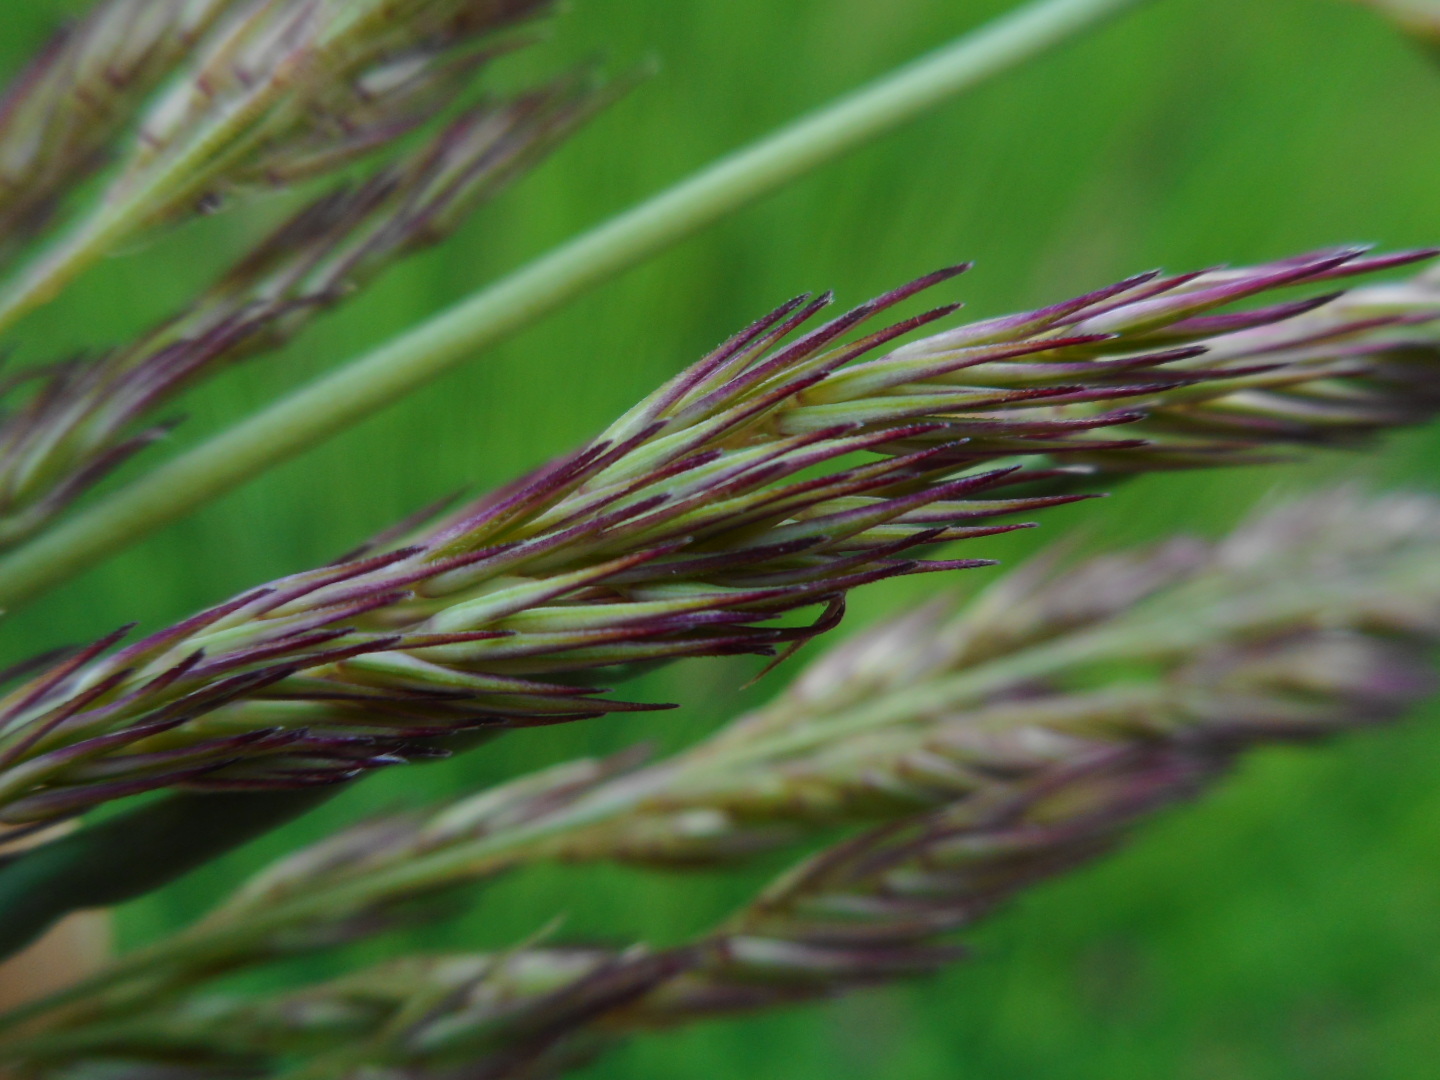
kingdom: Plantae
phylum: Tracheophyta
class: Liliopsida
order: Poales
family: Poaceae
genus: Calamagrostis
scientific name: Calamagrostis epigejos
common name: Wood small-reed
